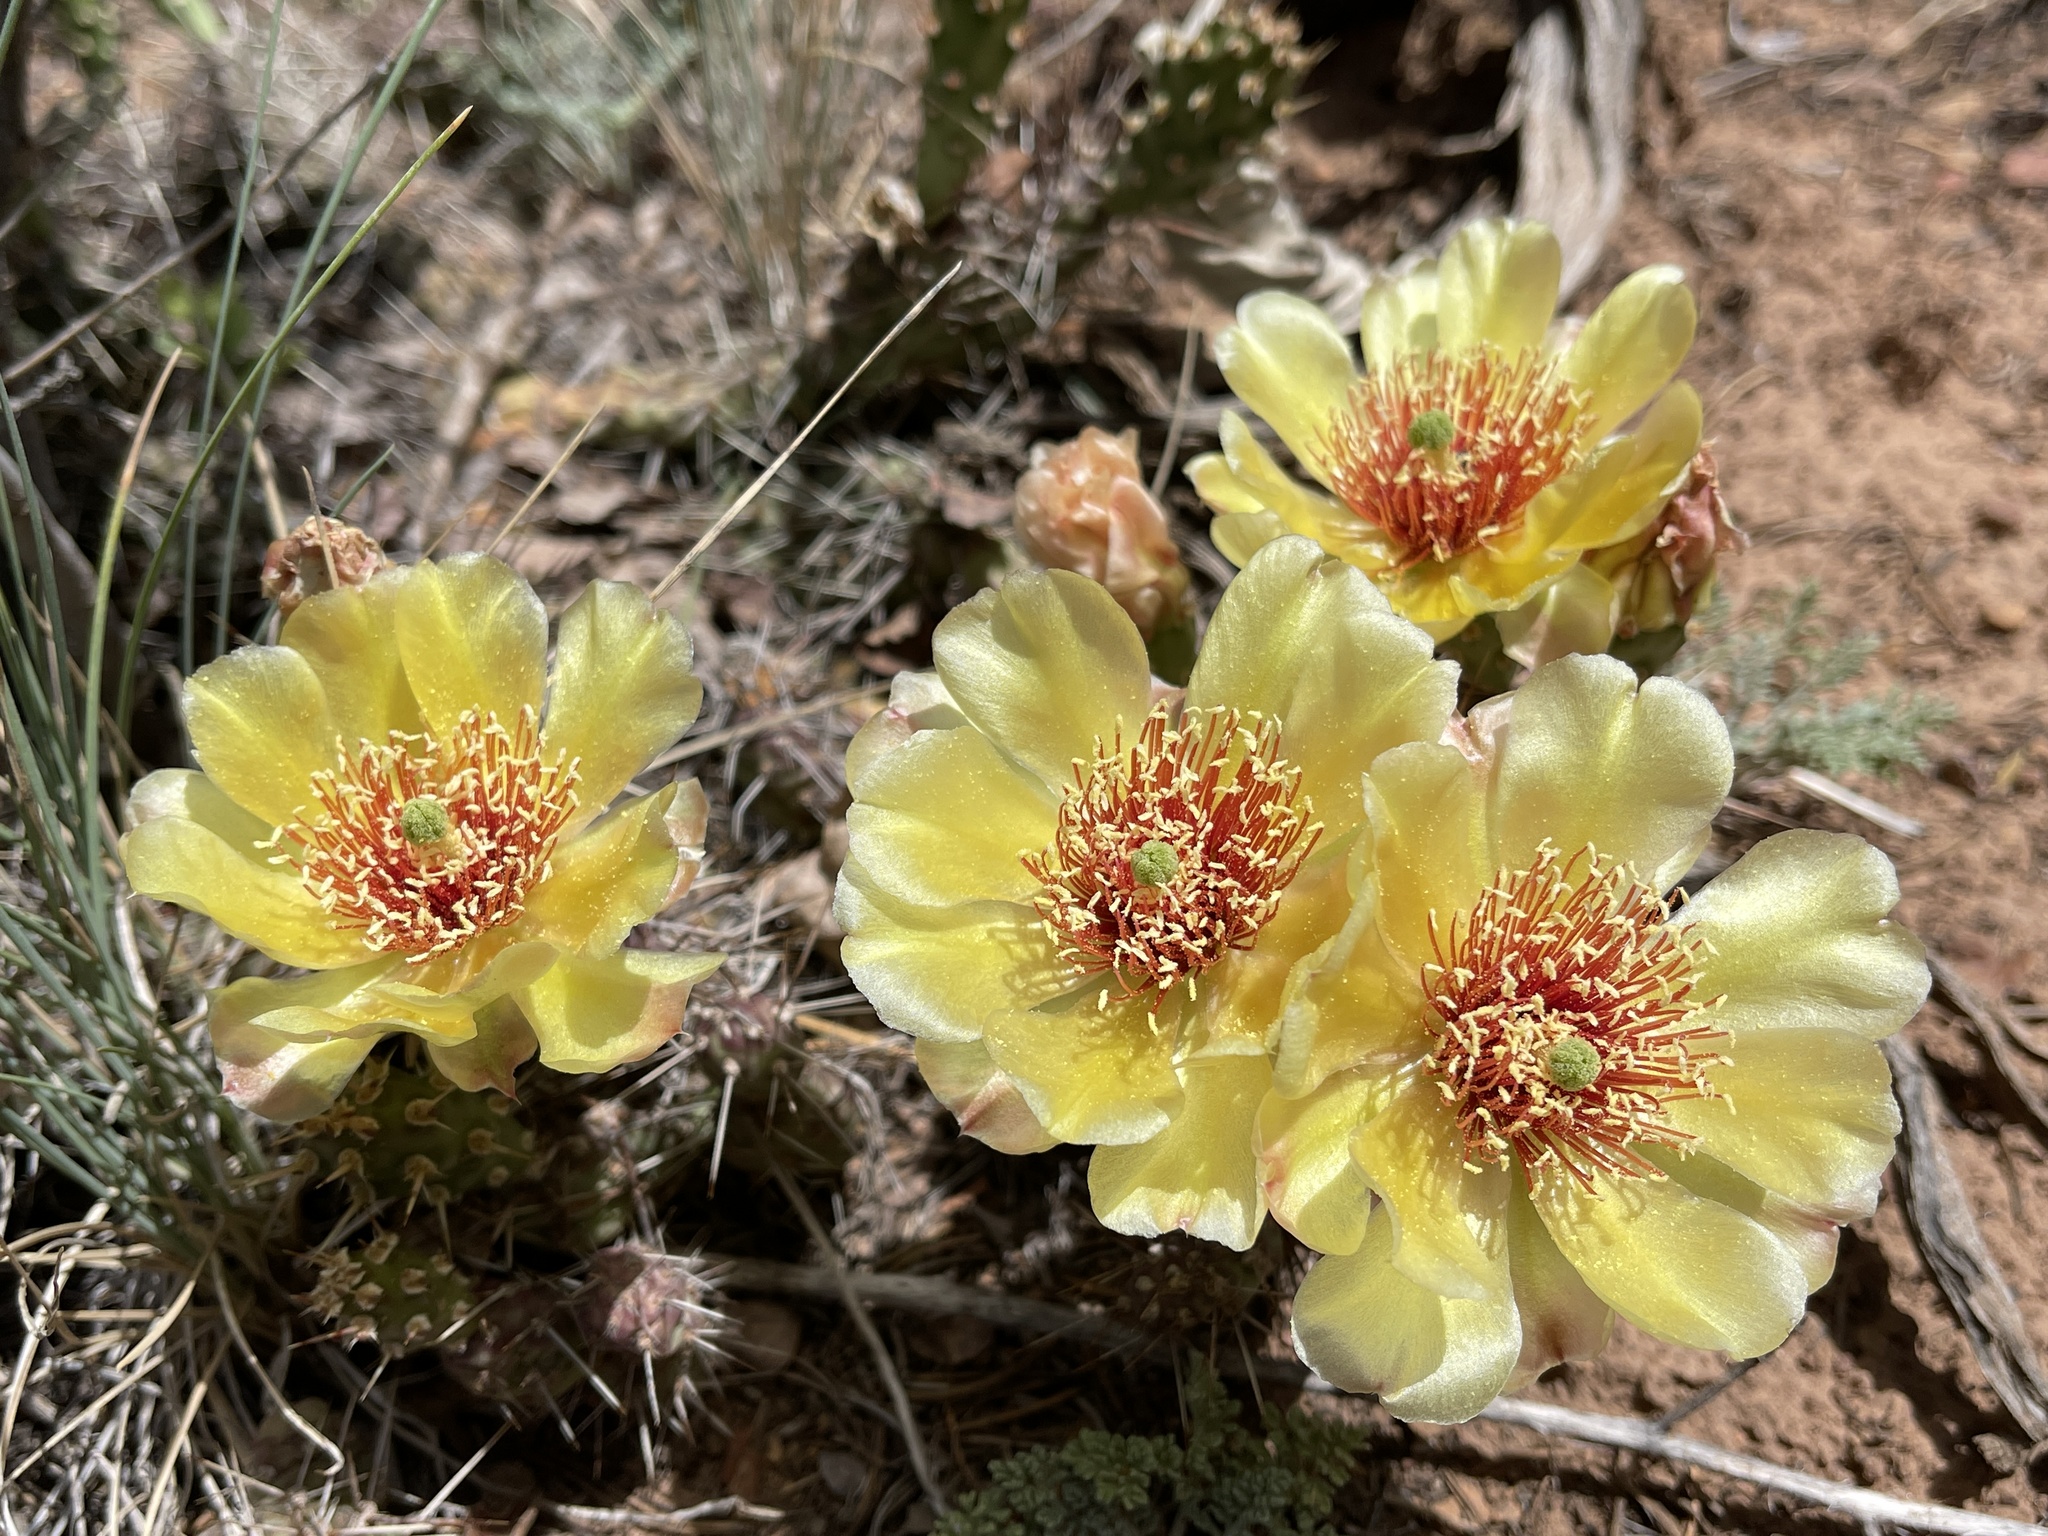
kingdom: Plantae
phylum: Tracheophyta
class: Magnoliopsida
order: Caryophyllales
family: Cactaceae
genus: Opuntia
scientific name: Opuntia fragilis
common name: Brittle cactus
